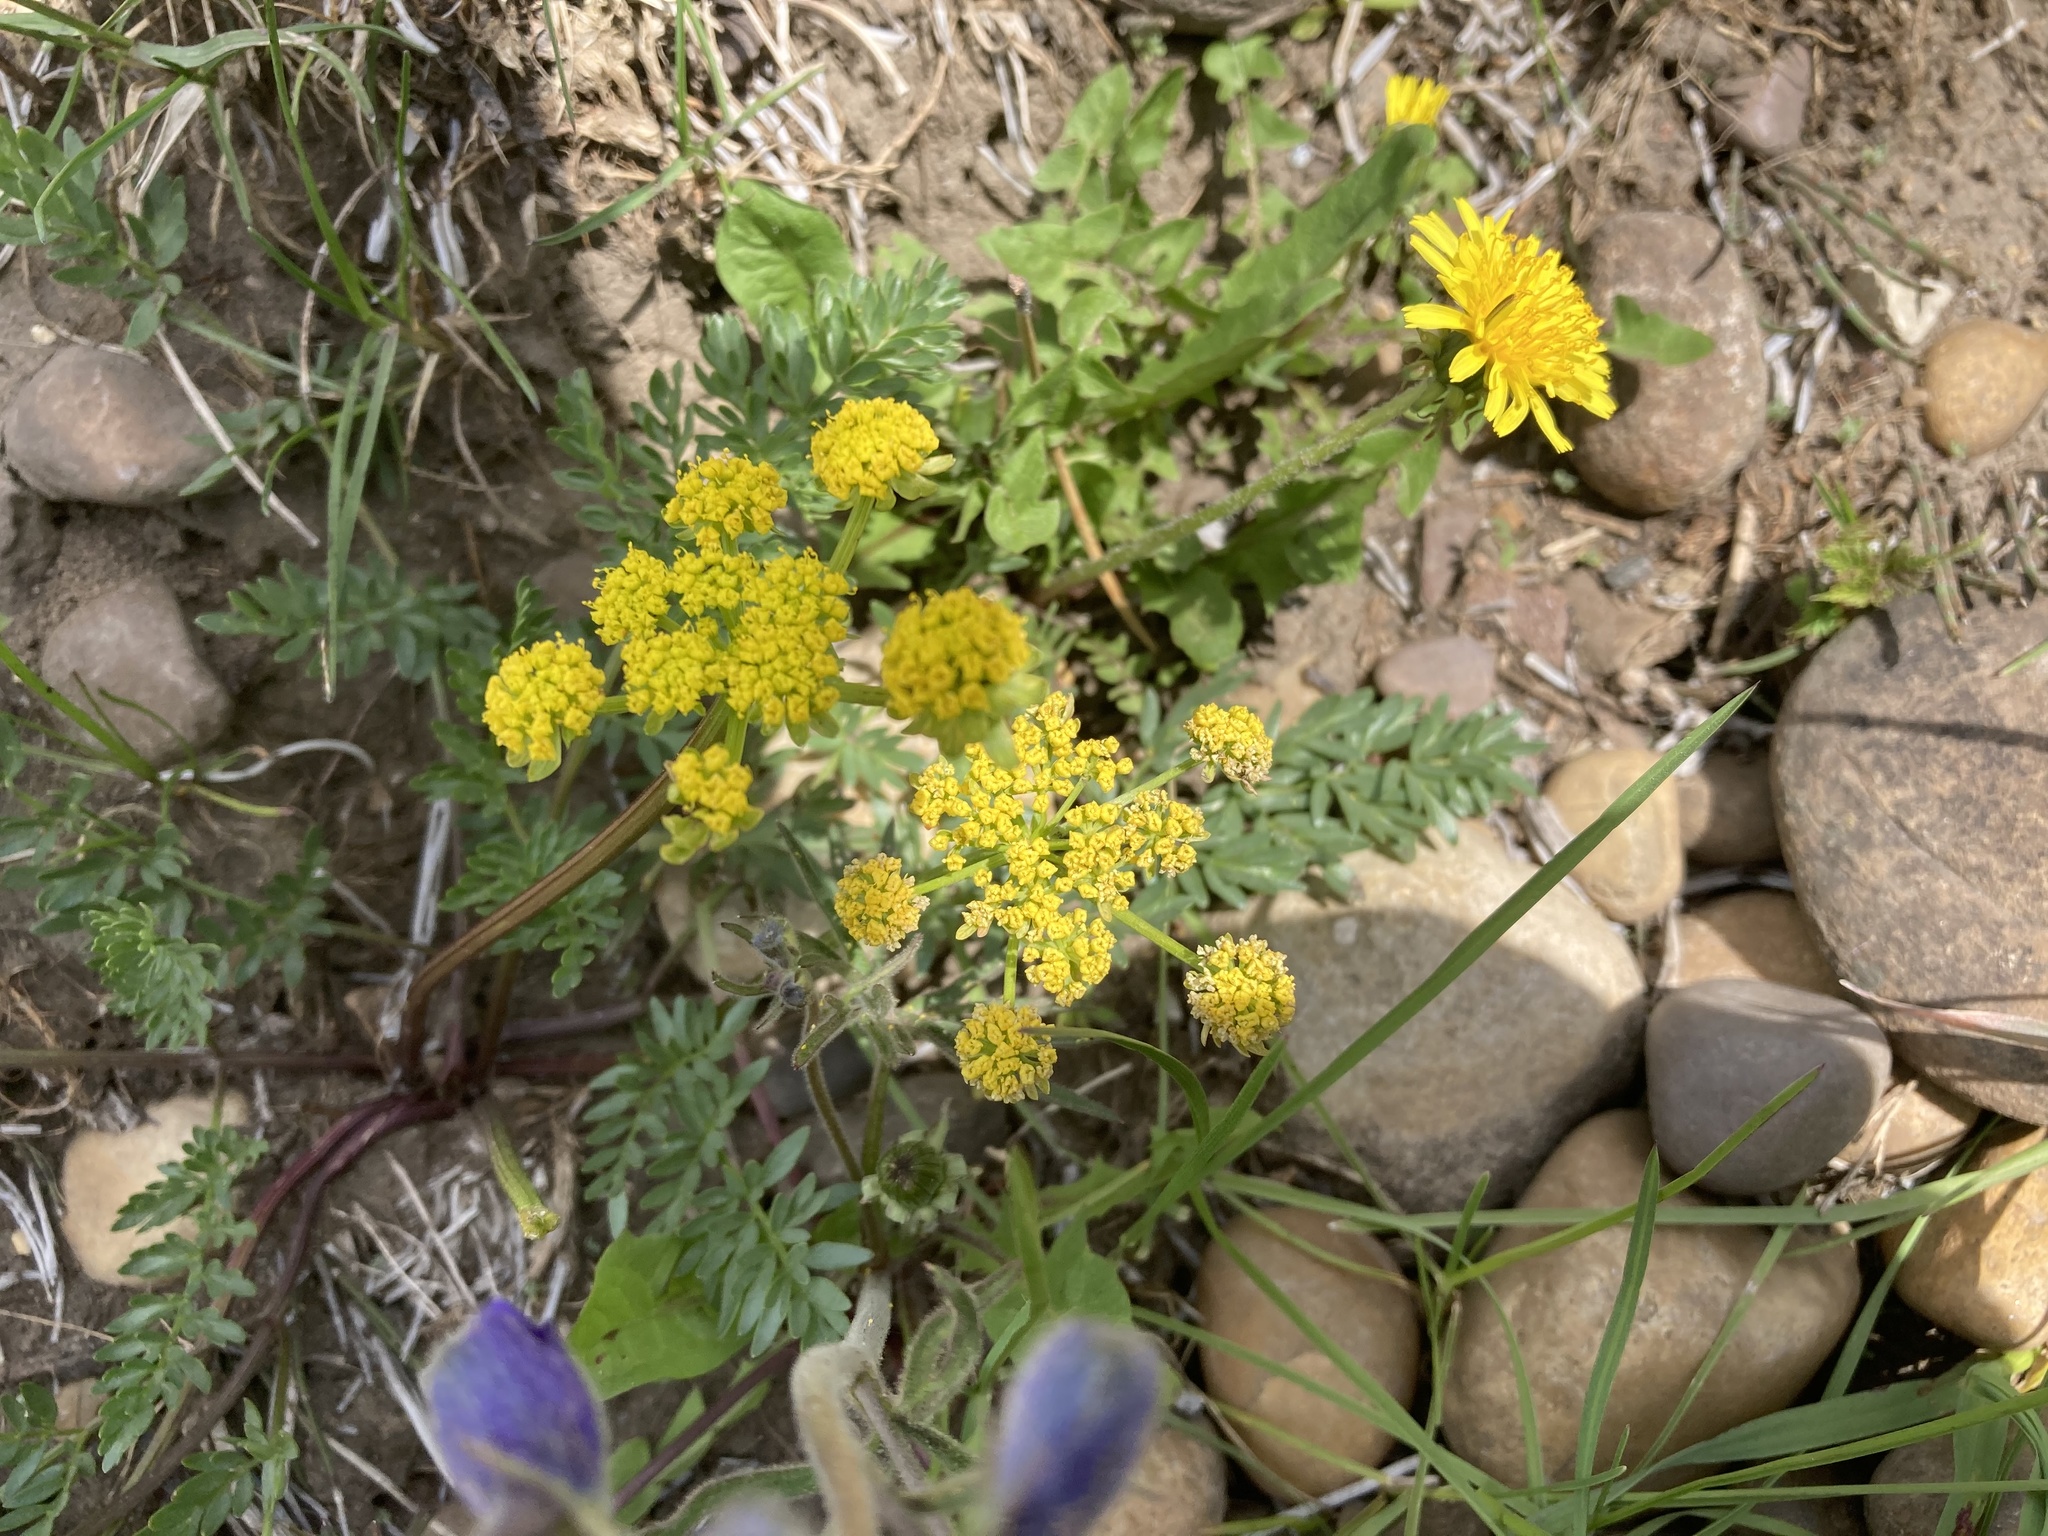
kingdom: Plantae
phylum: Tracheophyta
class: Magnoliopsida
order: Apiales
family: Apiaceae
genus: Lomatium
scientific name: Lomatium cous
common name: Biscuit-root
